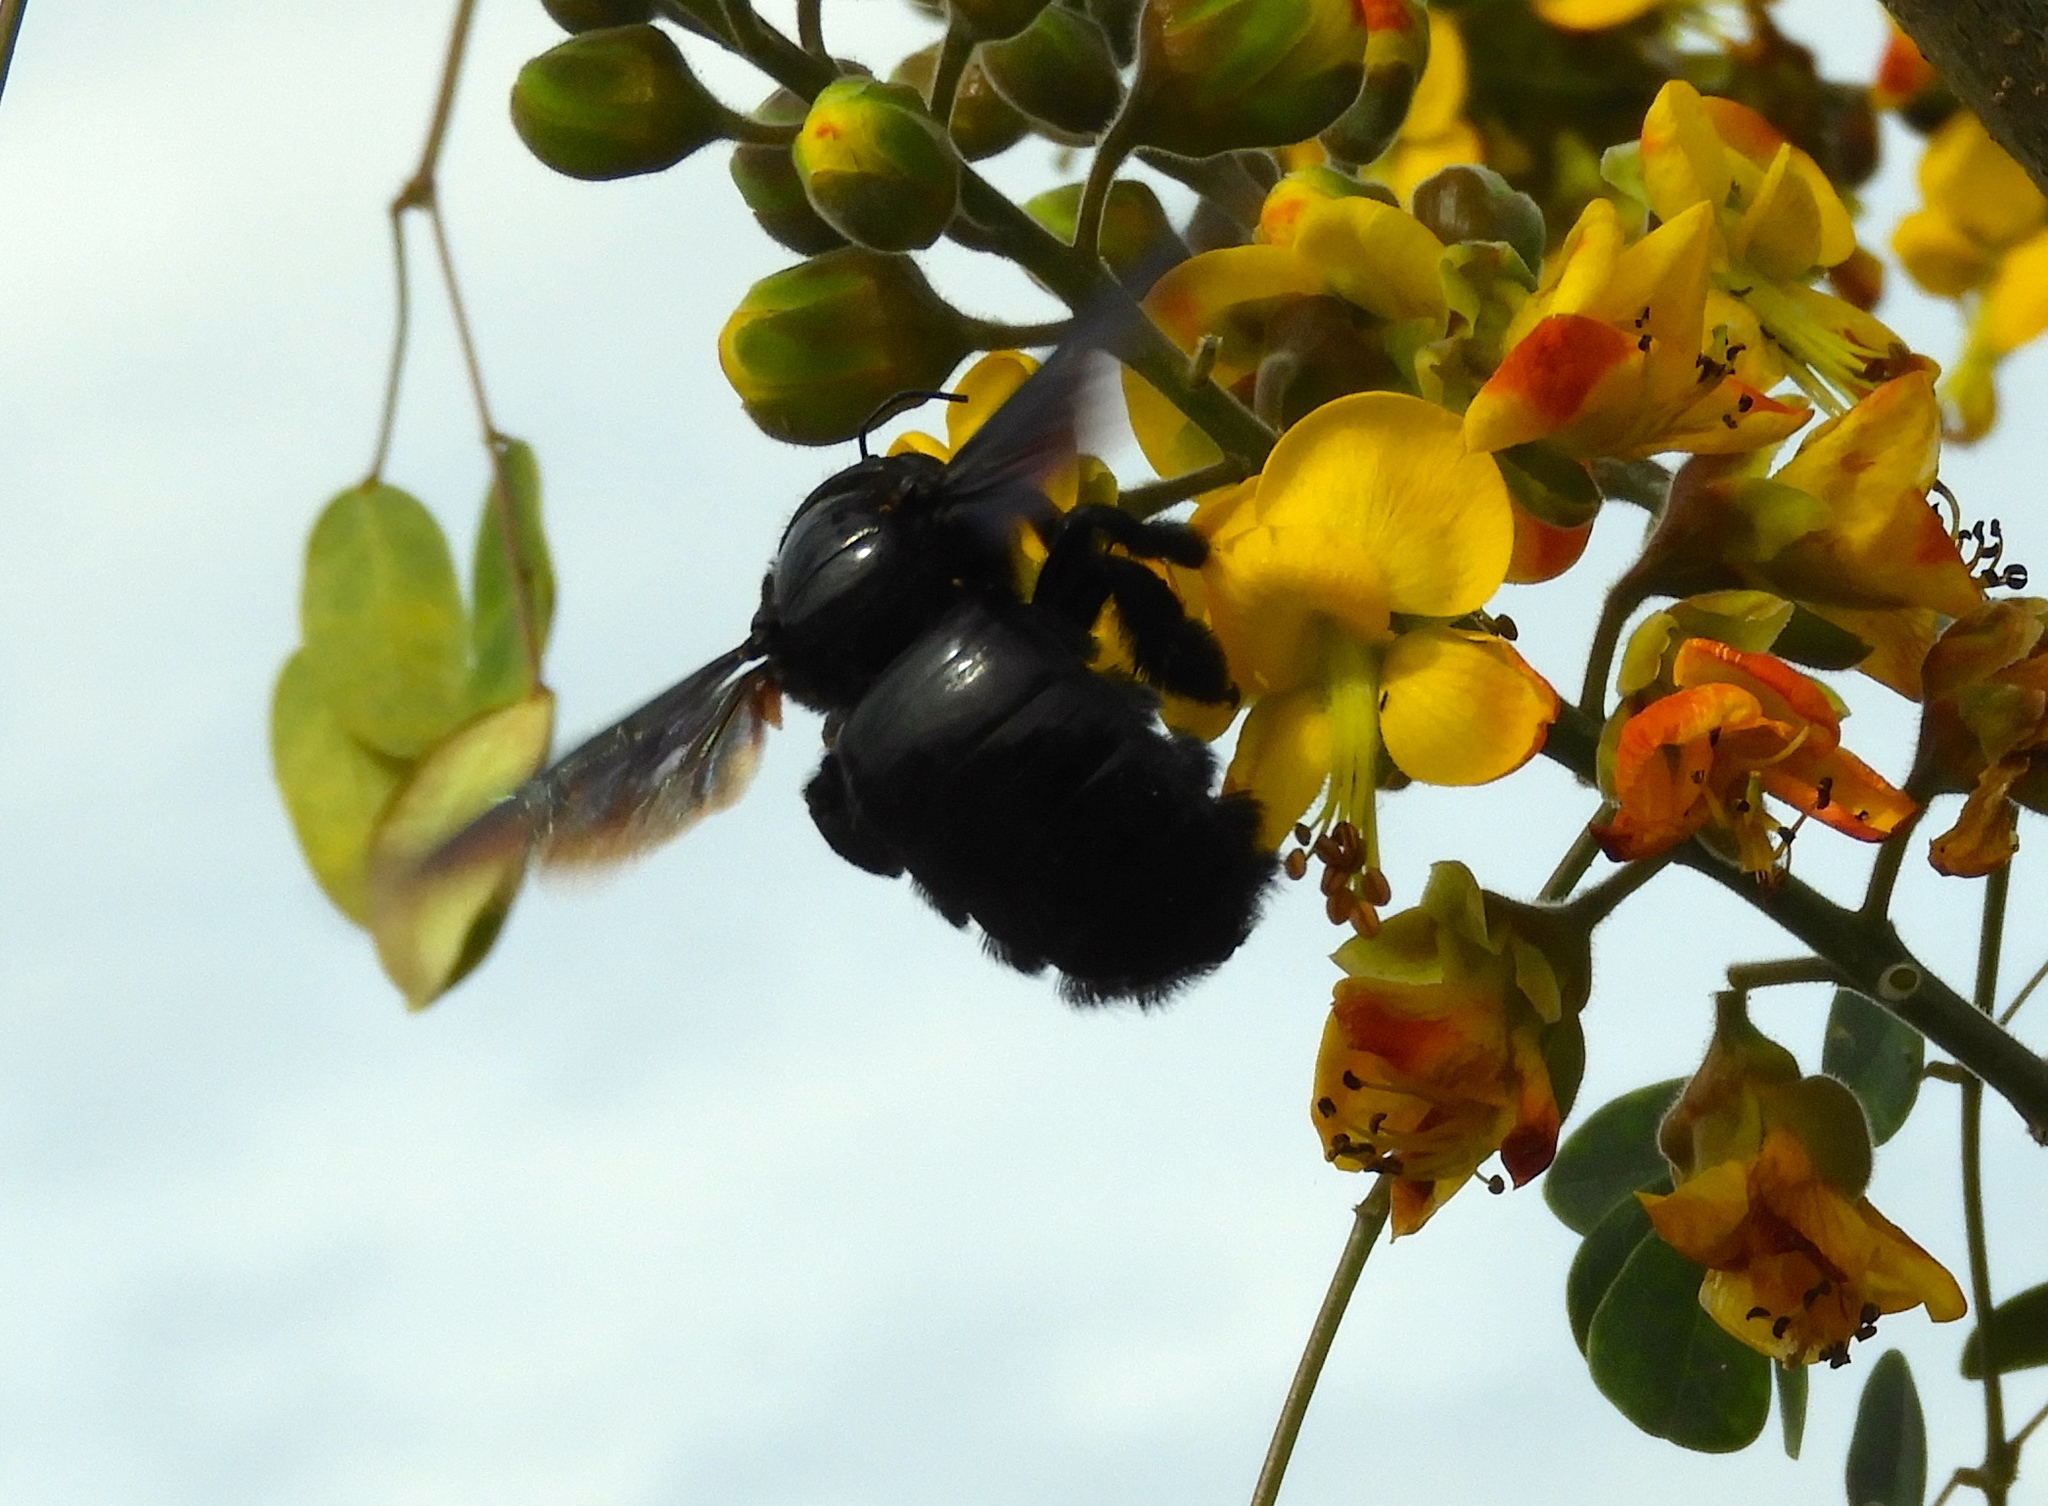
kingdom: Animalia
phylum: Arthropoda
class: Insecta
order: Hymenoptera
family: Apidae
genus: Xylocopa
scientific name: Xylocopa
